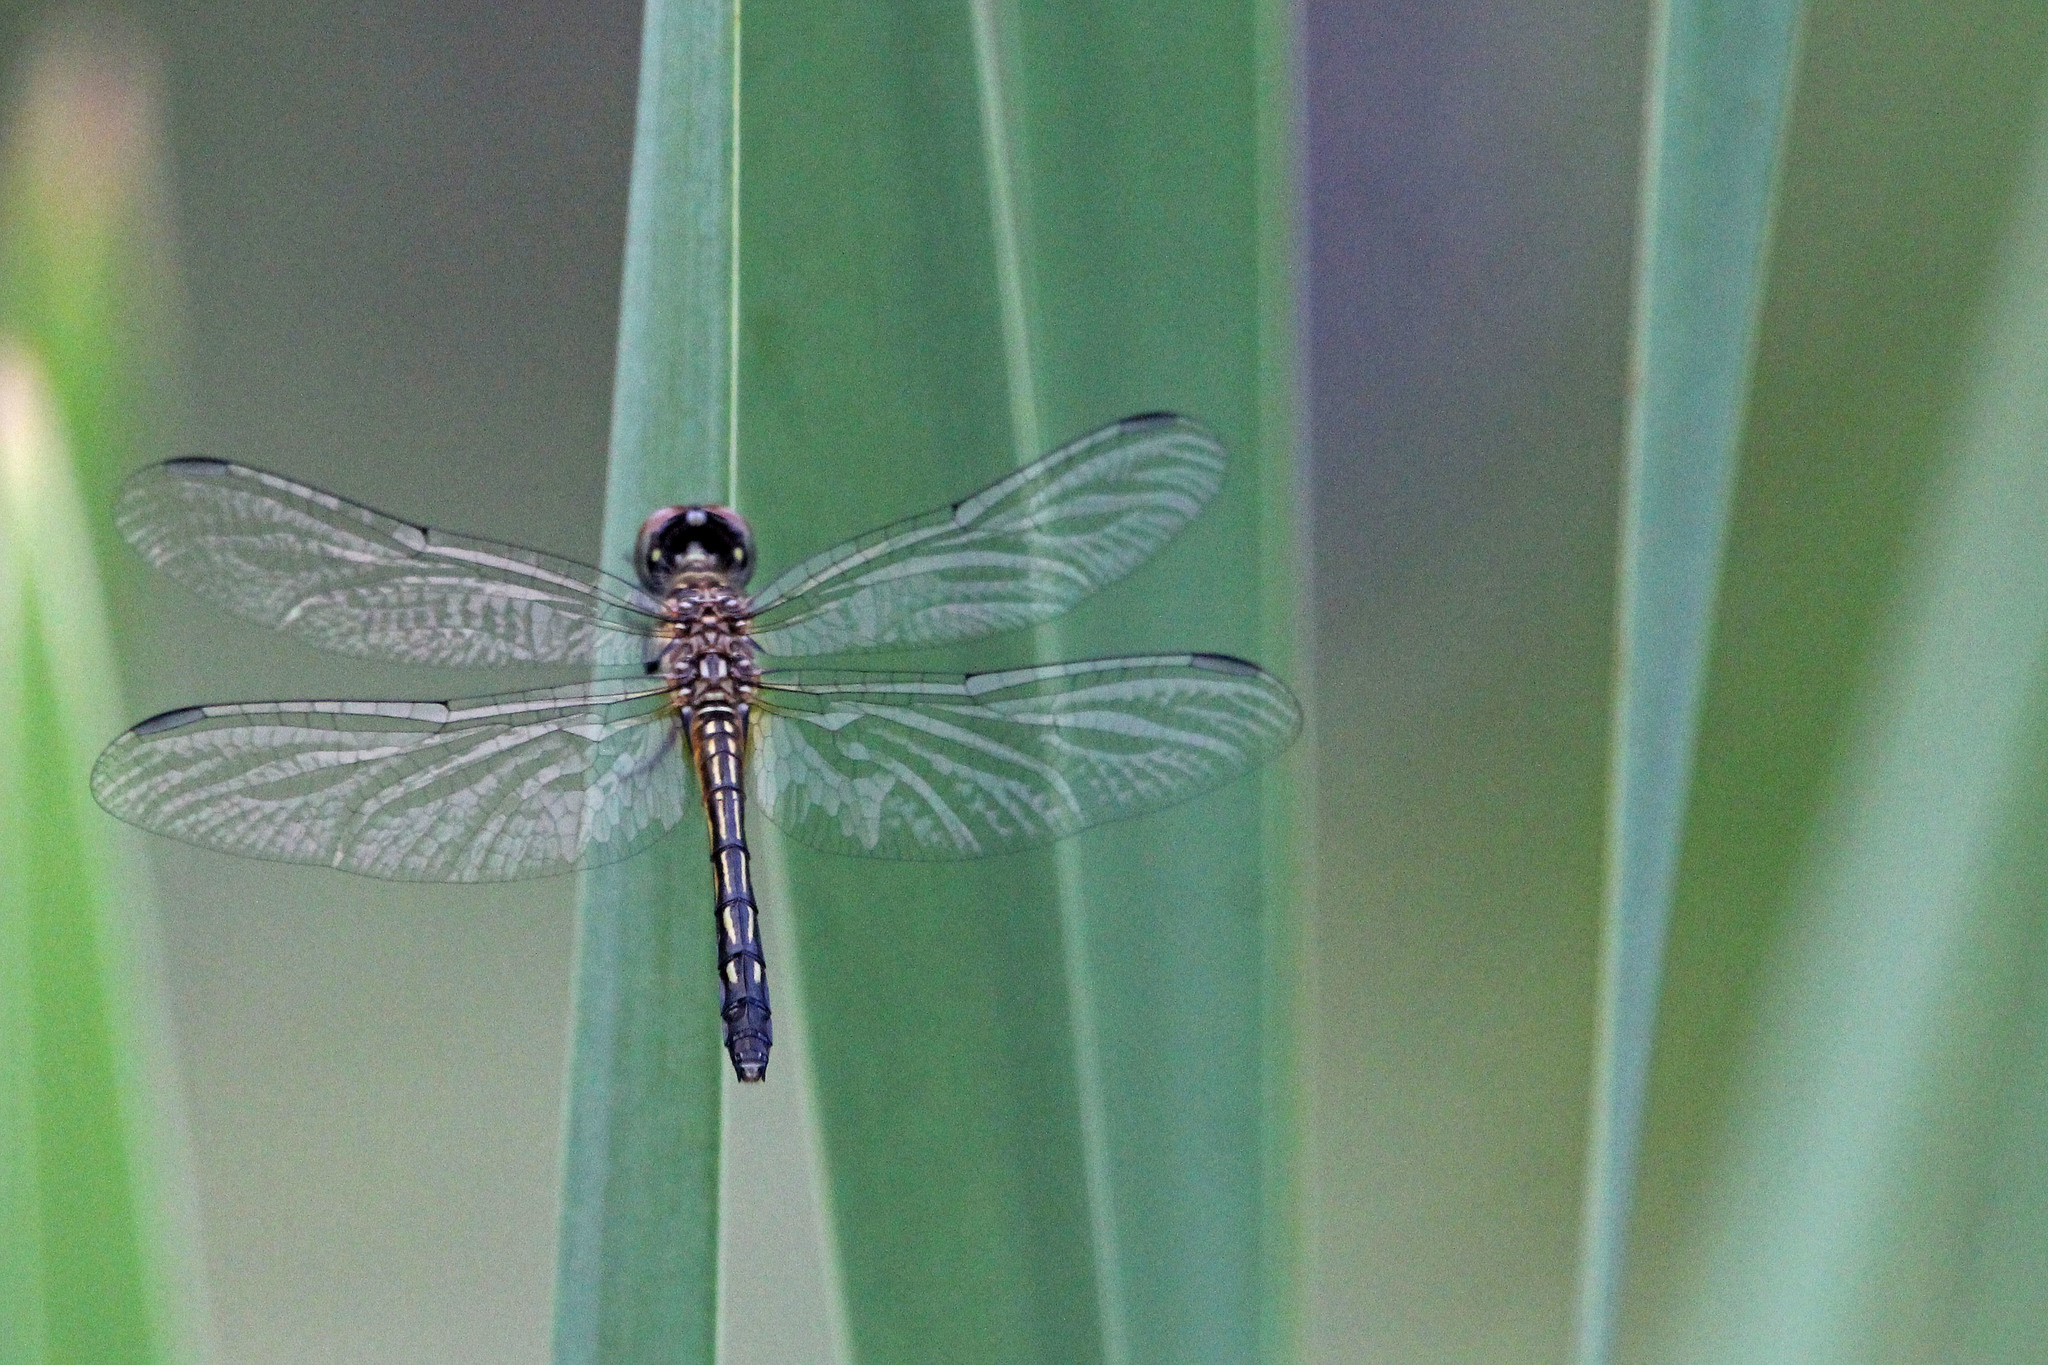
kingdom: Animalia
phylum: Arthropoda
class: Insecta
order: Odonata
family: Libellulidae
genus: Pachydiplax
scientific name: Pachydiplax longipennis
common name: Blue dasher
